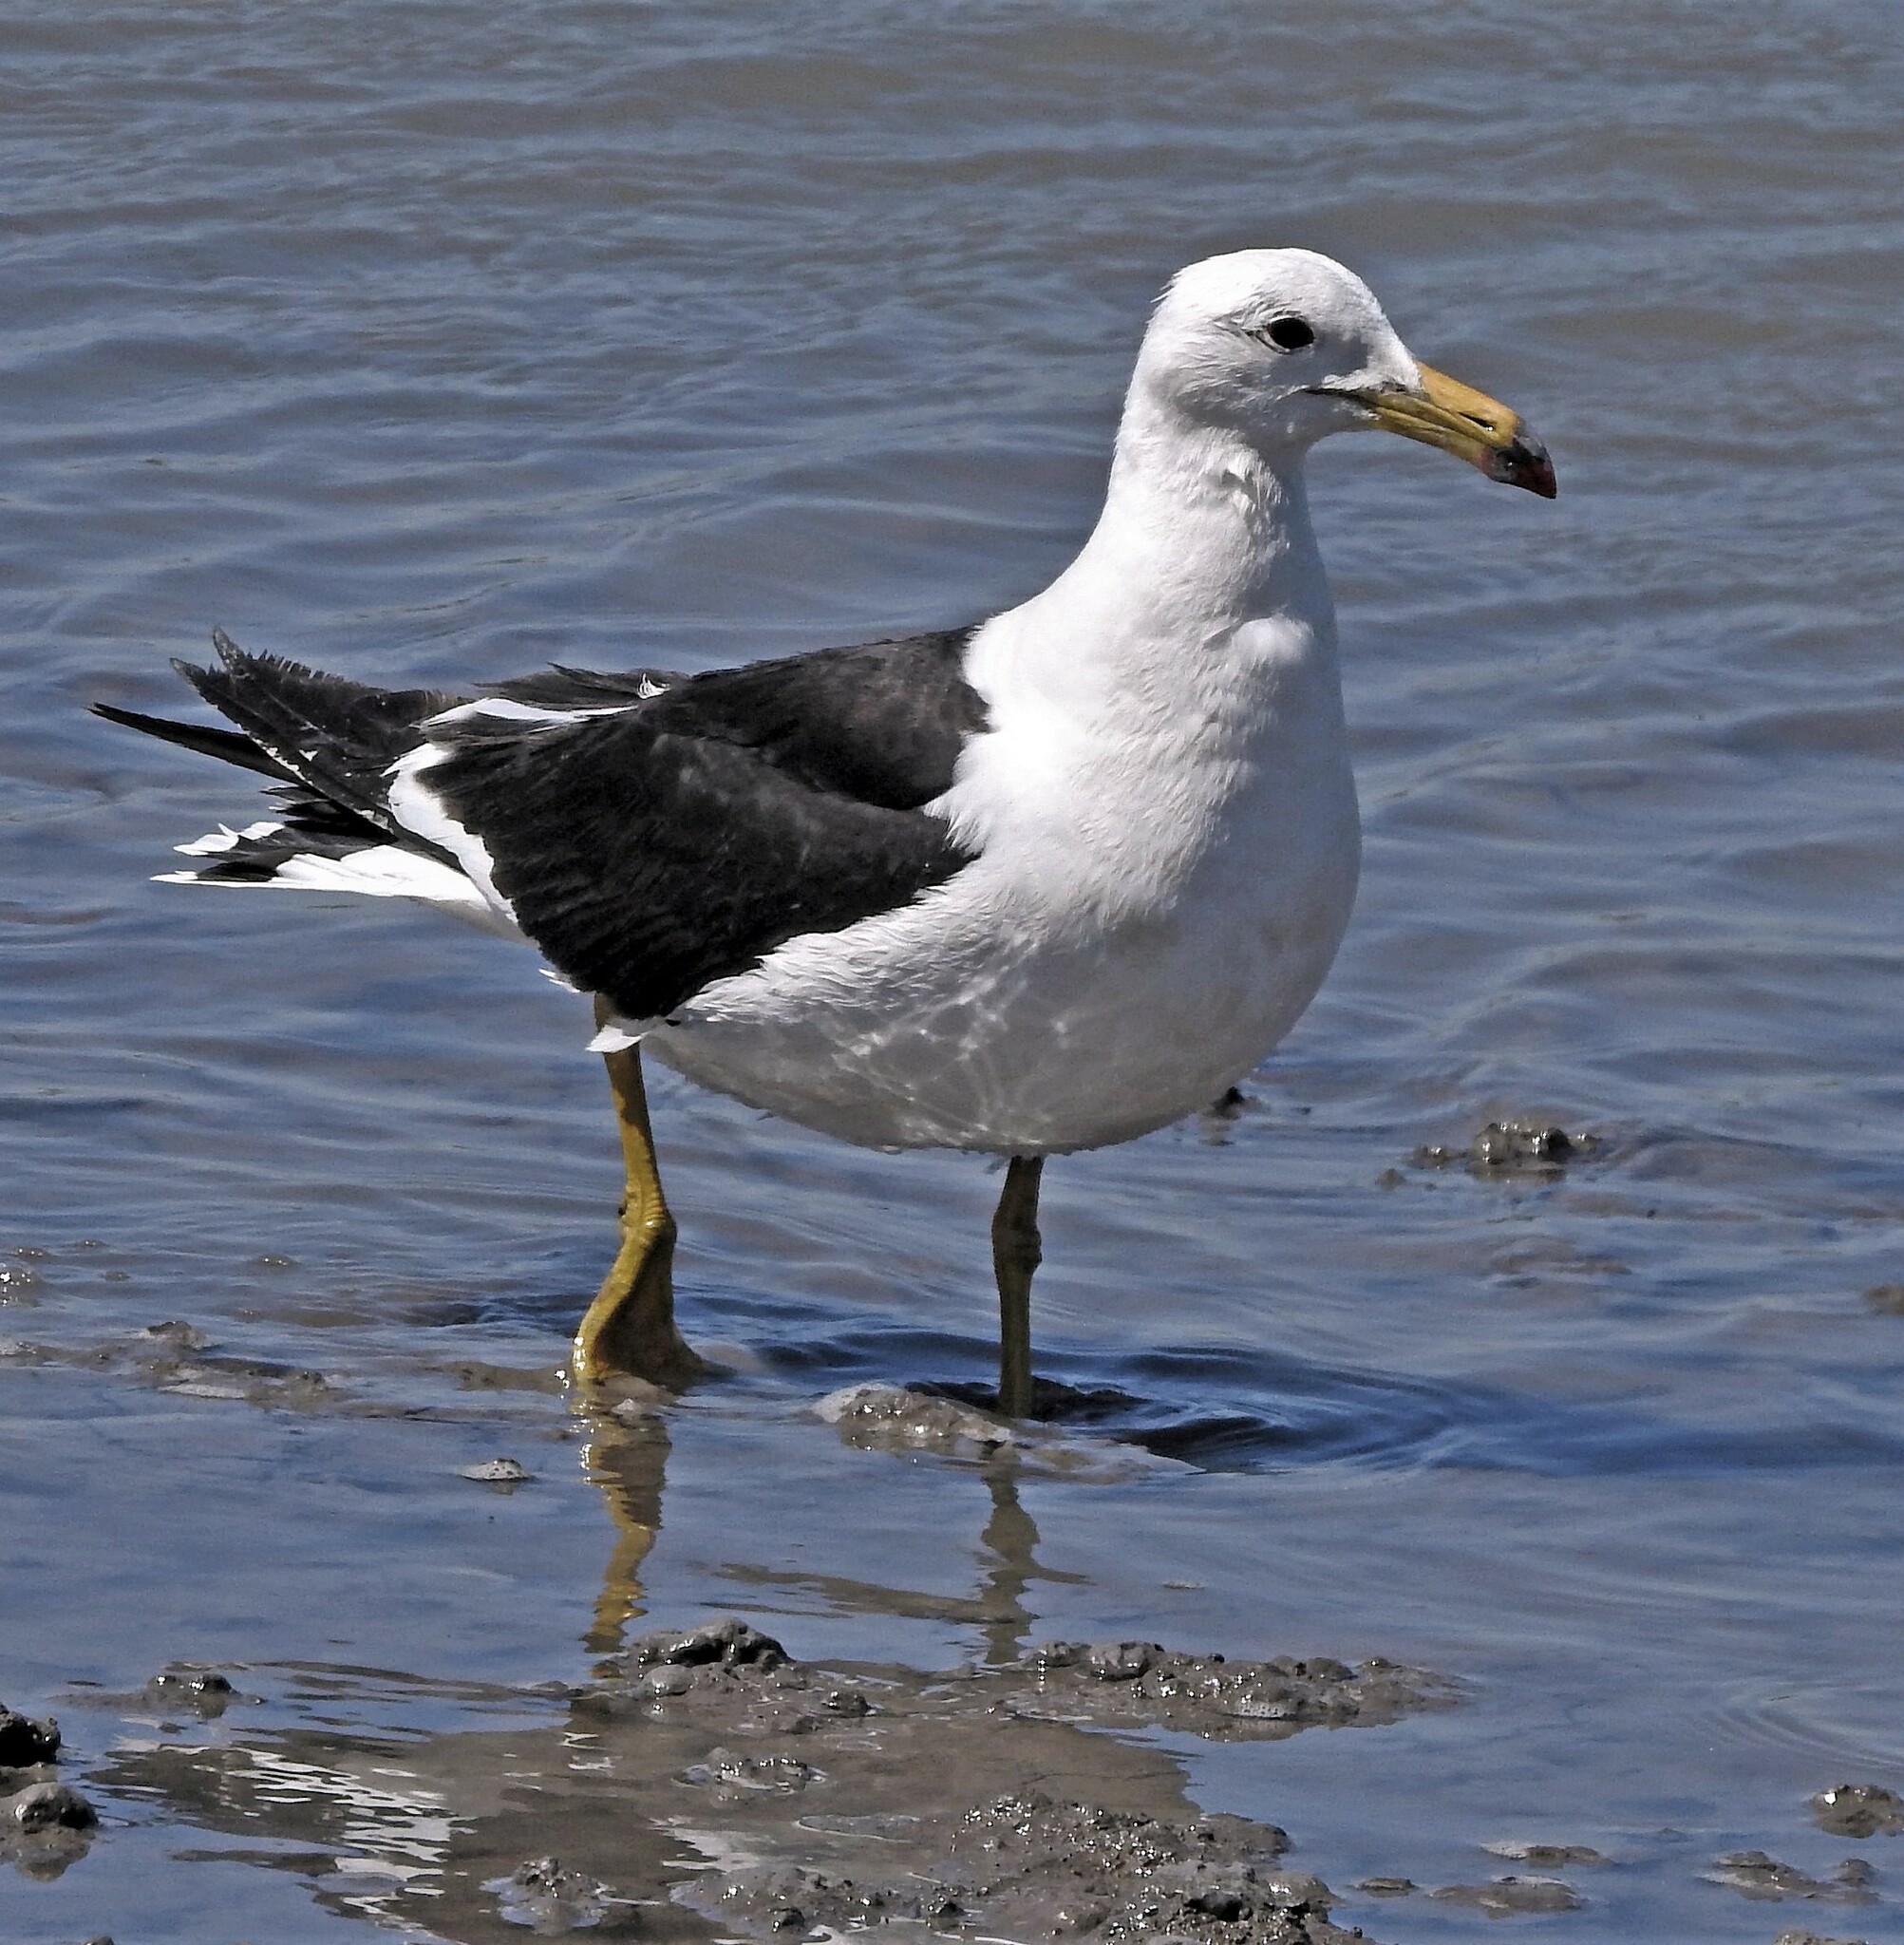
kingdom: Animalia
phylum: Chordata
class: Aves
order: Charadriiformes
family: Laridae
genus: Larus
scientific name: Larus atlanticus
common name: Olrog's gull
